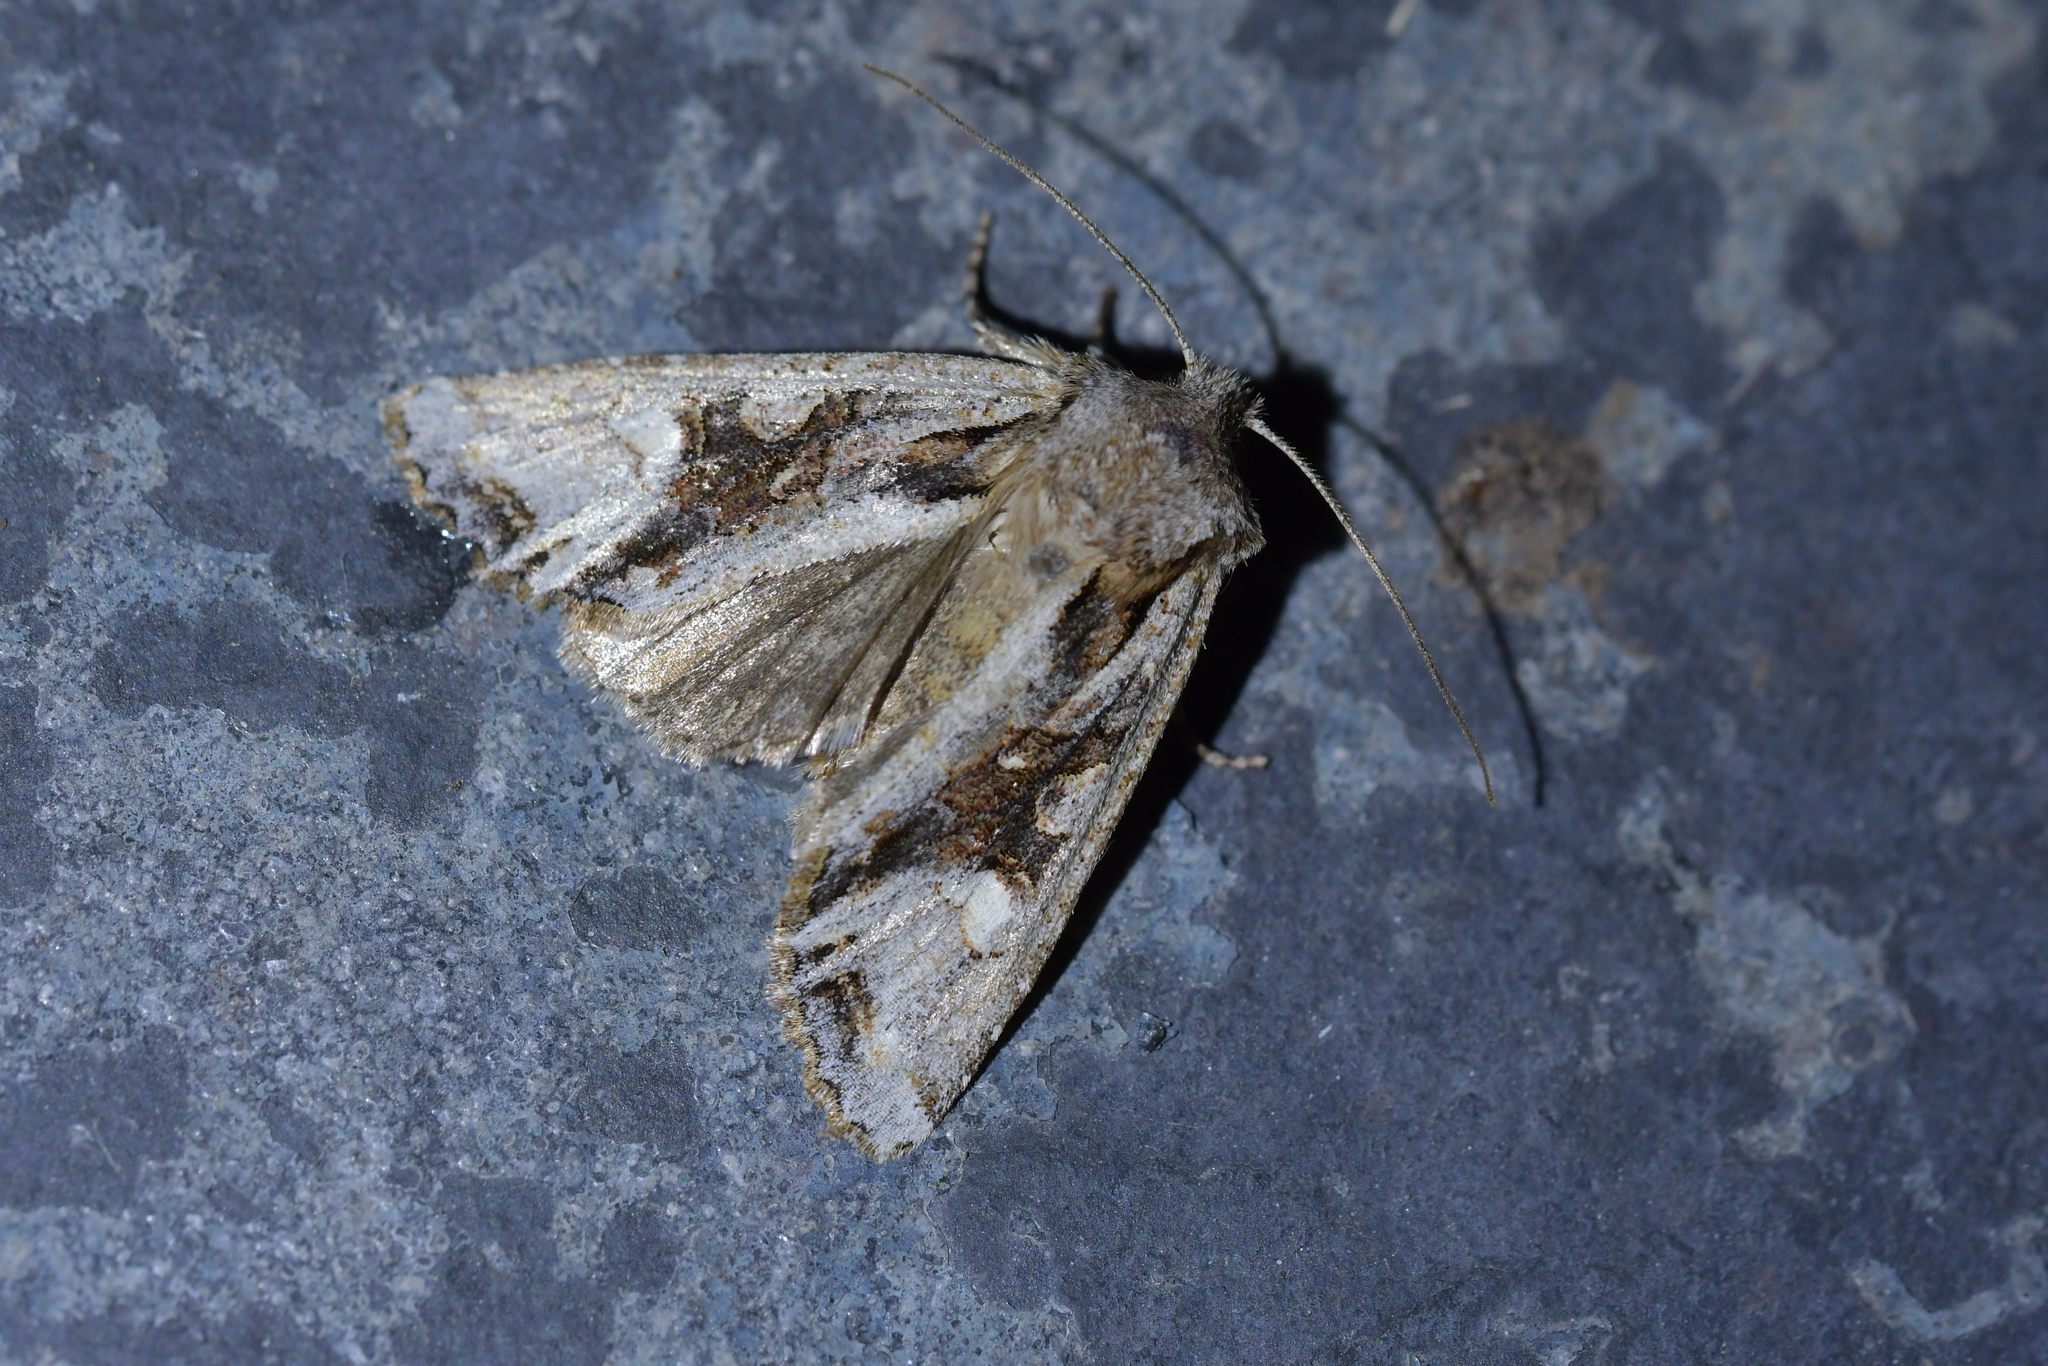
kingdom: Animalia
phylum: Arthropoda
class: Insecta
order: Lepidoptera
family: Noctuidae
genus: Ichneutica
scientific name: Ichneutica
